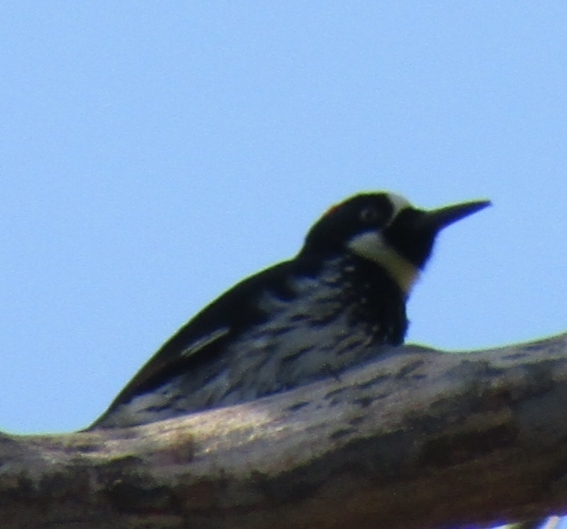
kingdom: Animalia
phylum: Chordata
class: Aves
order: Piciformes
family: Picidae
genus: Melanerpes
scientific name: Melanerpes formicivorus
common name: Acorn woodpecker
